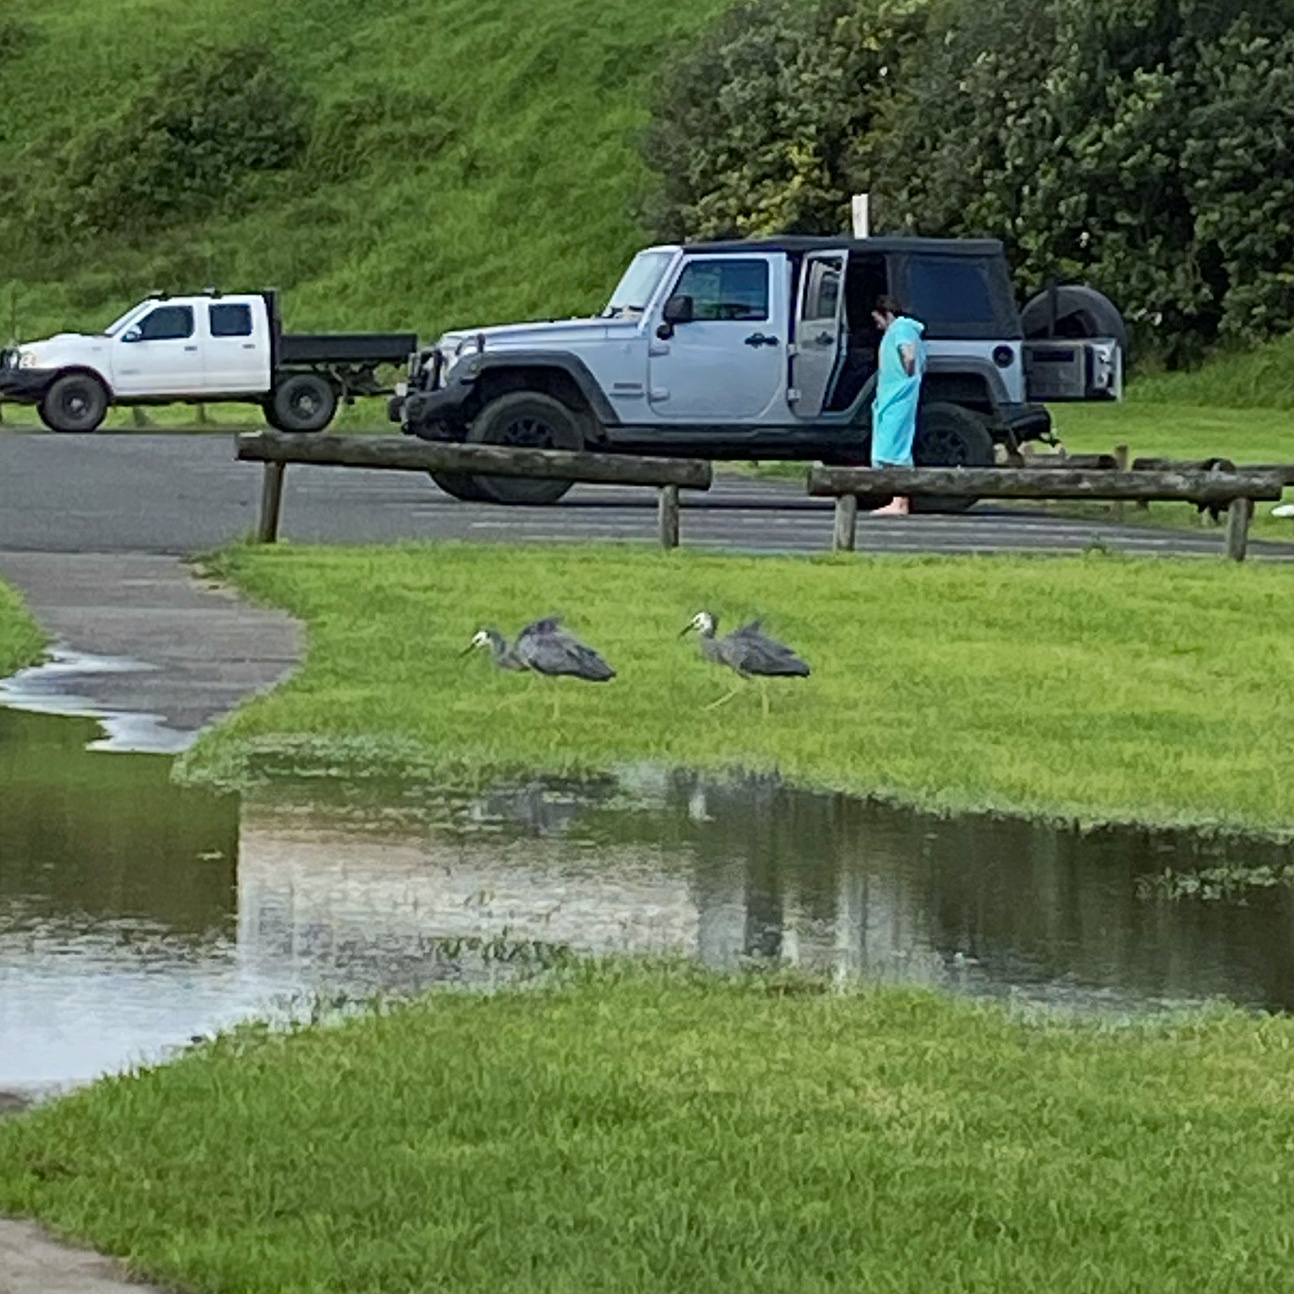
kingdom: Animalia
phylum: Chordata
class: Aves
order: Pelecaniformes
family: Ardeidae
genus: Egretta
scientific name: Egretta novaehollandiae
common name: White-faced heron
